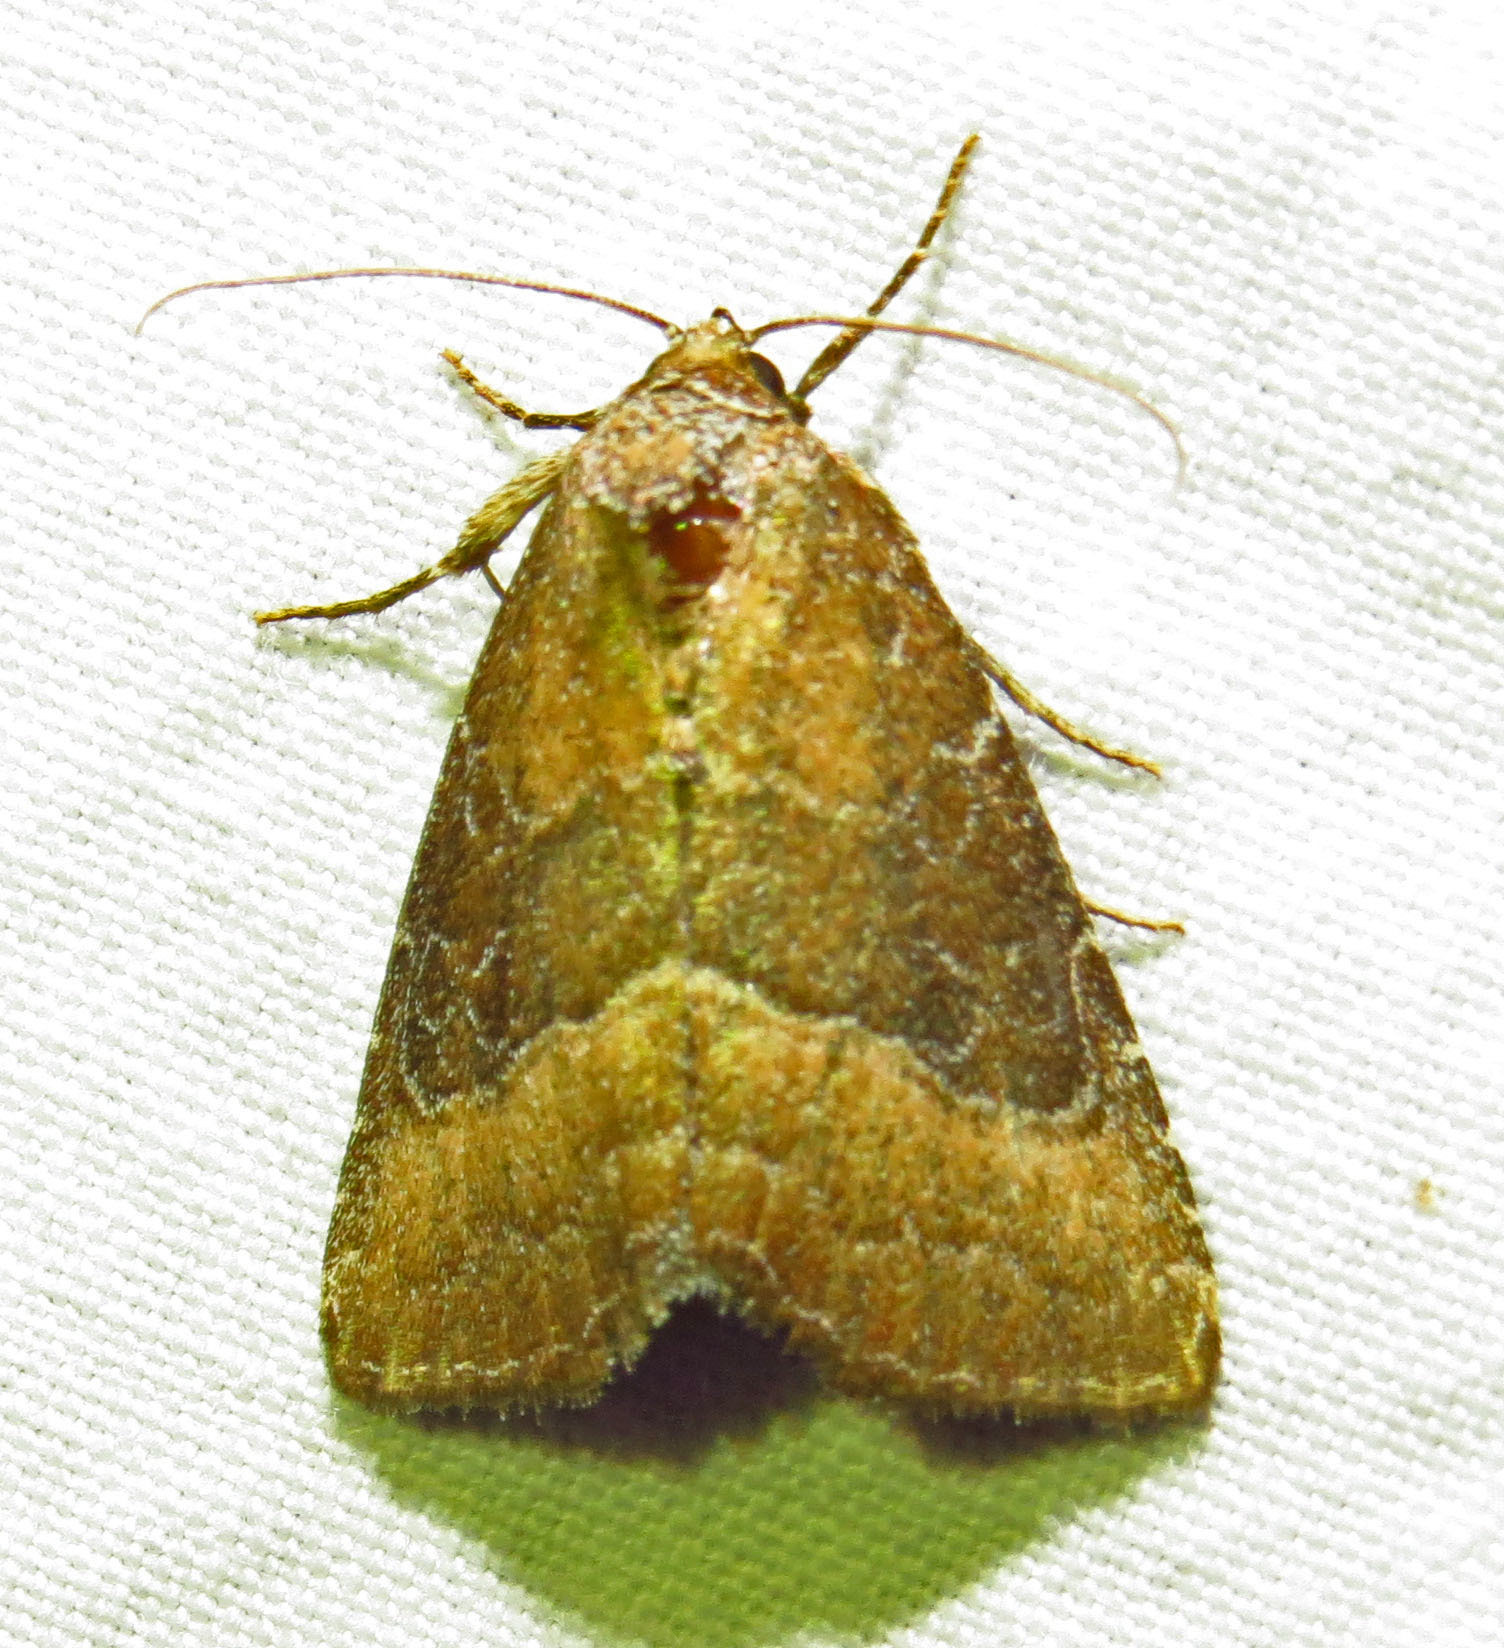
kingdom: Animalia
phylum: Arthropoda
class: Insecta
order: Lepidoptera
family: Noctuidae
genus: Ogdoconta
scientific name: Ogdoconta cinereola
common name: Common pinkband
